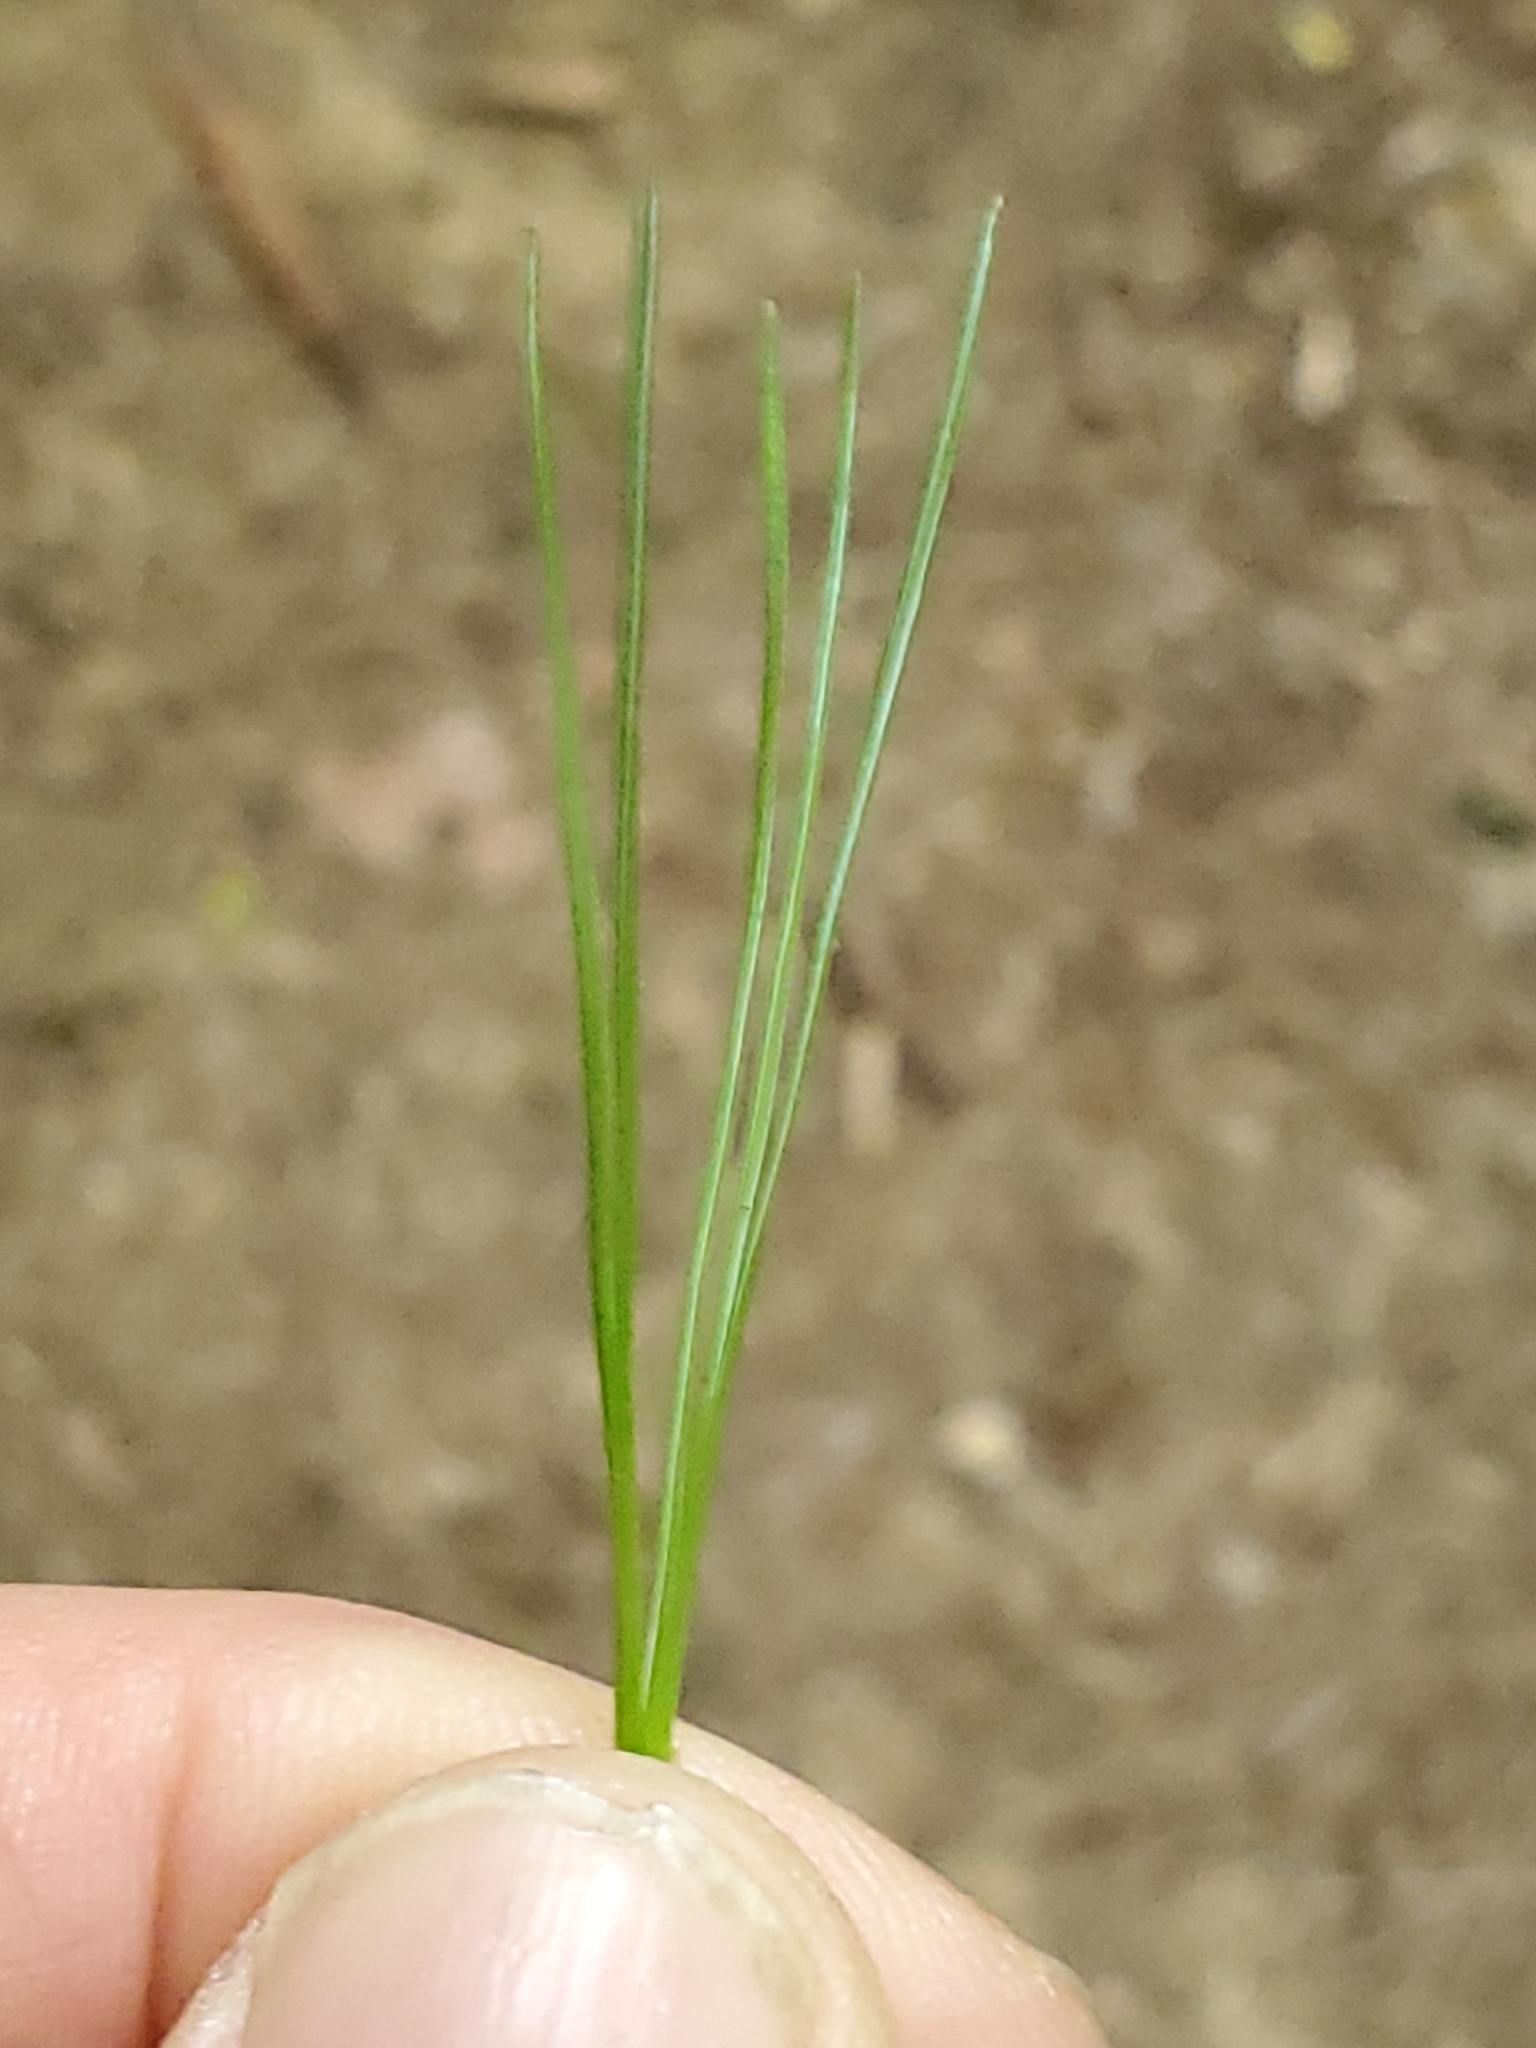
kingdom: Plantae
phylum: Tracheophyta
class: Pinopsida
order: Pinales
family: Pinaceae
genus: Pinus
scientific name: Pinus strobus
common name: Weymouth pine
